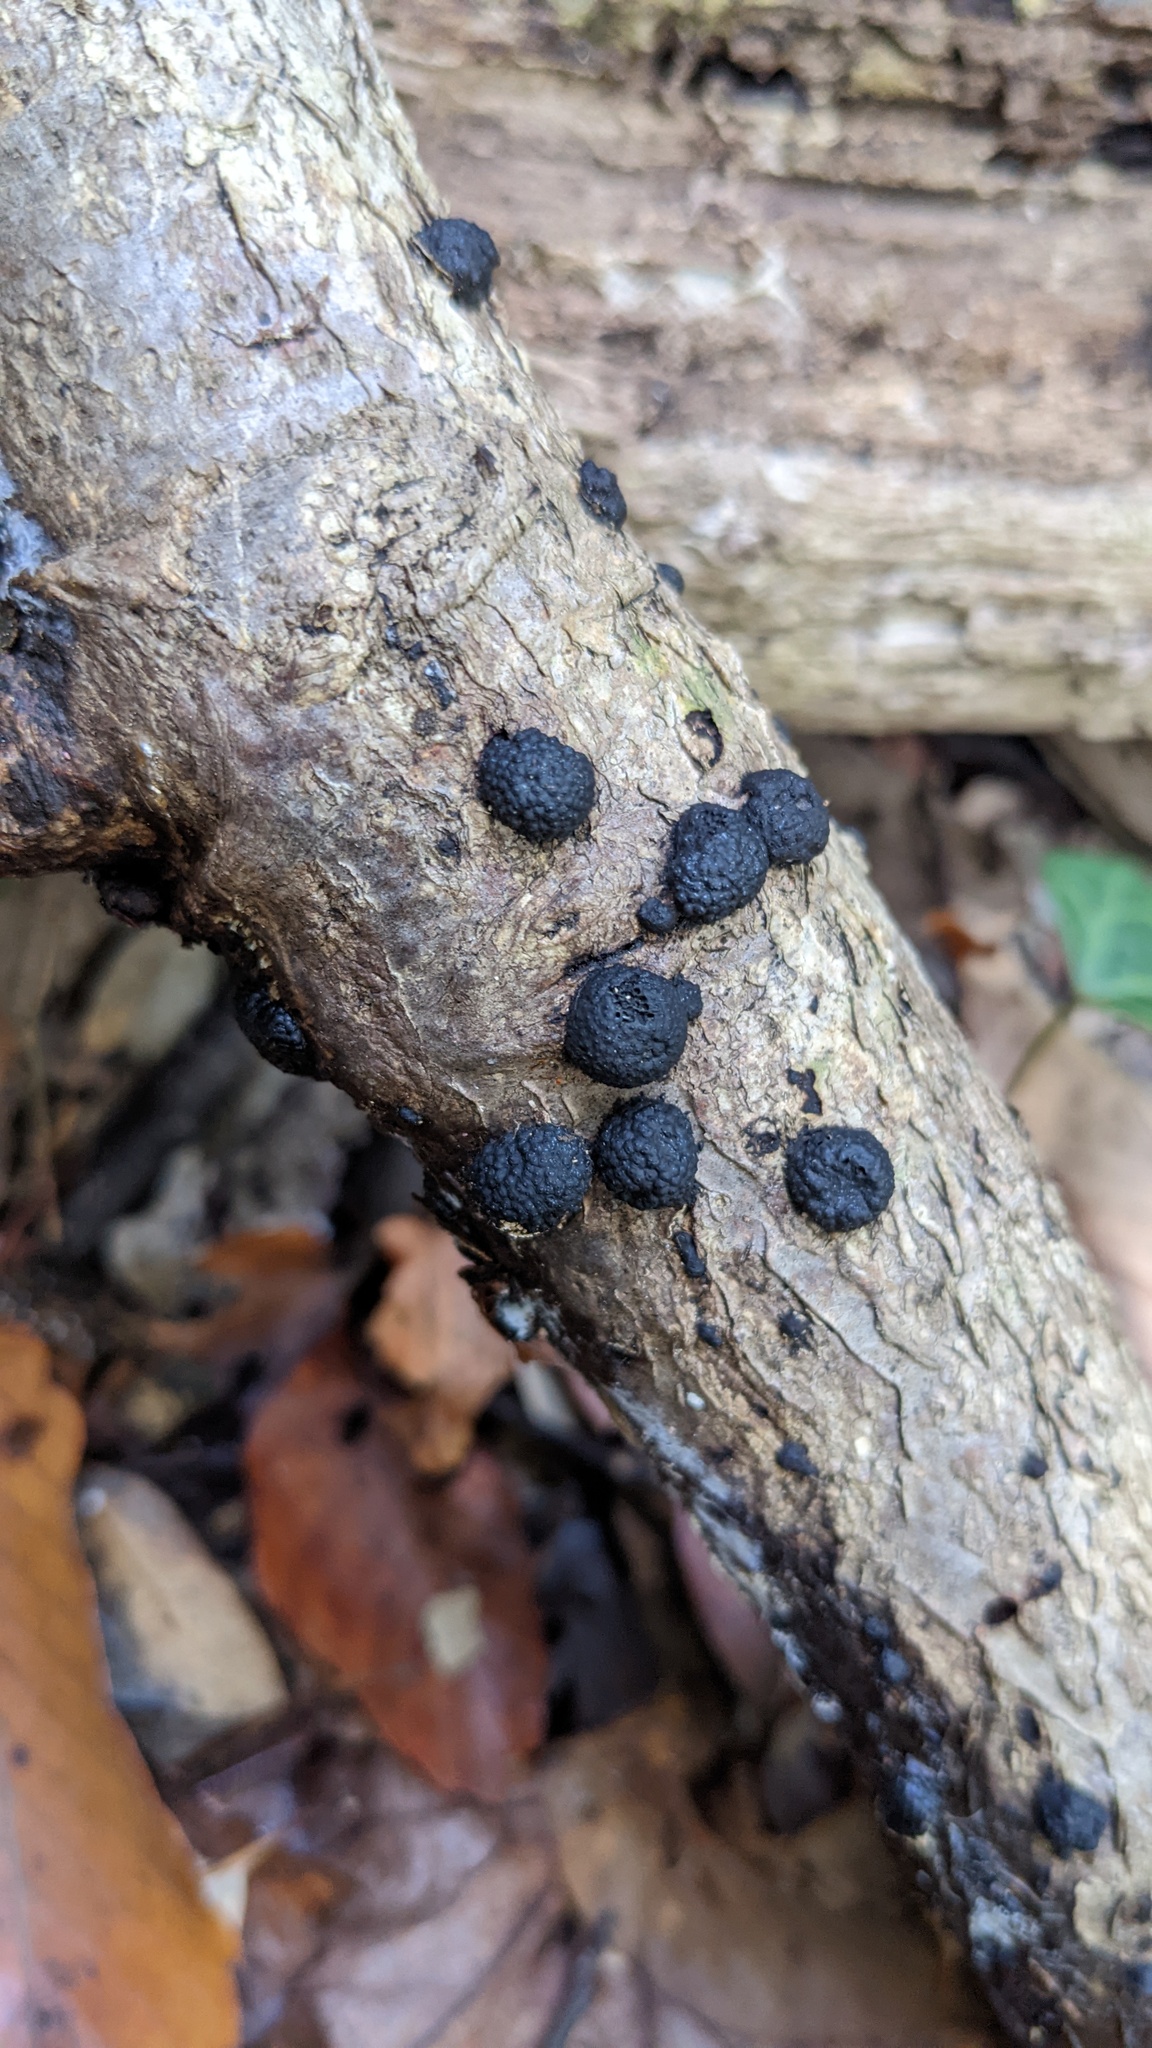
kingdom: Fungi
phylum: Ascomycota
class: Sordariomycetes
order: Xylariales
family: Hypoxylaceae
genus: Annulohypoxylon
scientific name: Annulohypoxylon truncatum
